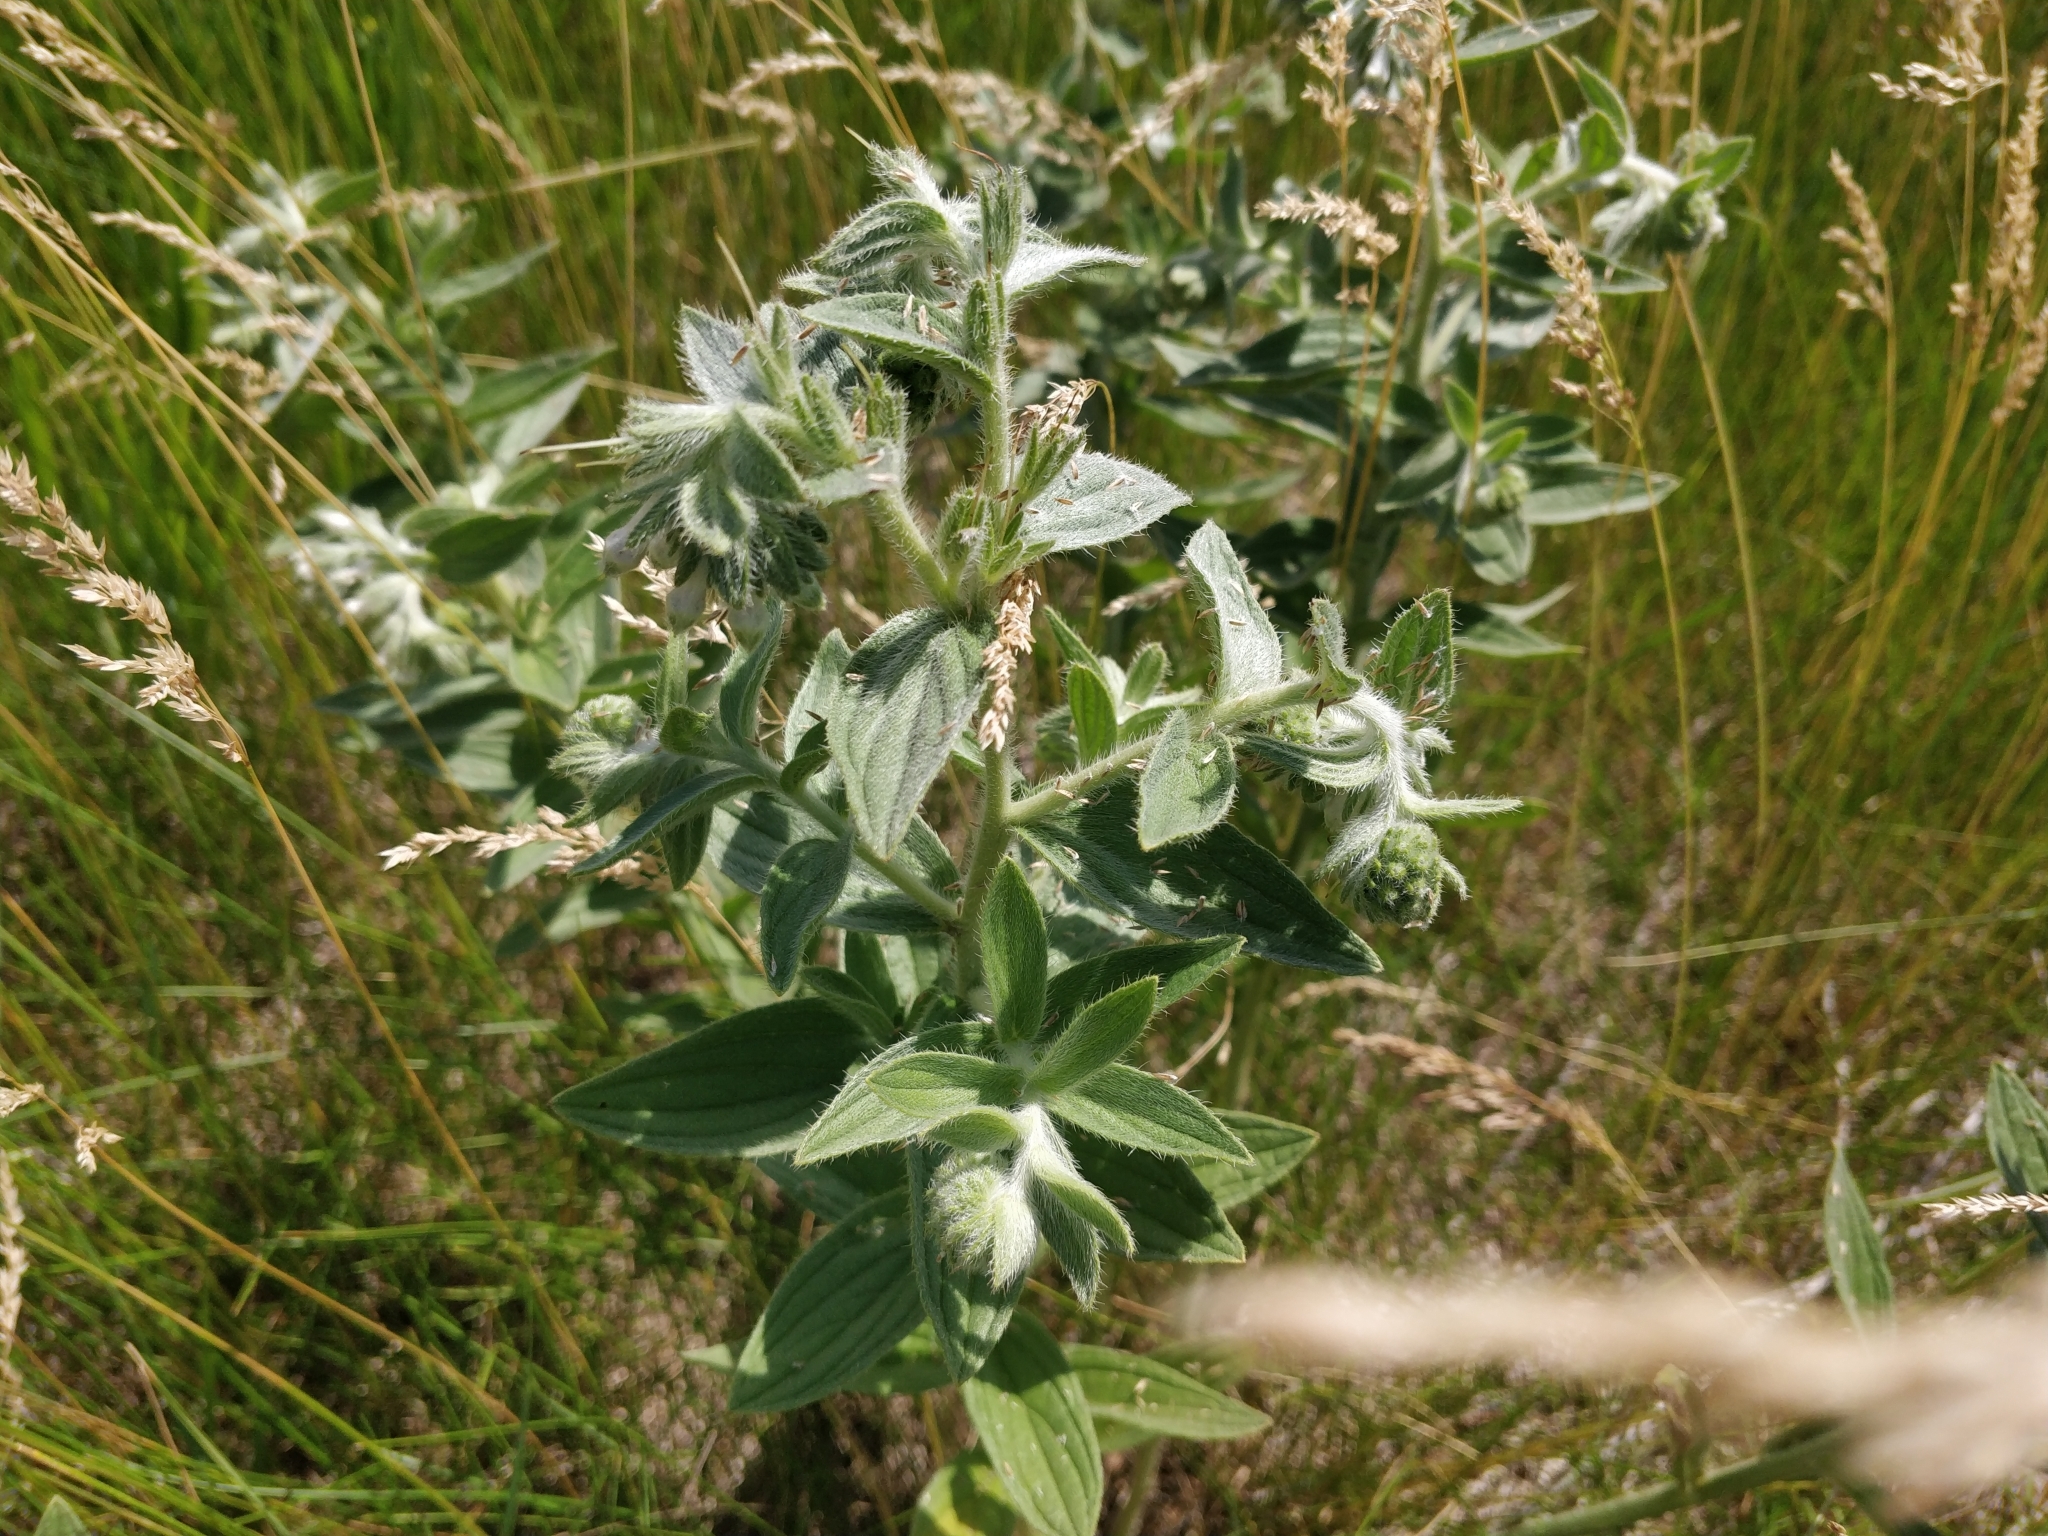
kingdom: Plantae
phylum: Tracheophyta
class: Magnoliopsida
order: Boraginales
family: Boraginaceae
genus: Lithospermum
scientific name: Lithospermum occidentale
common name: Western false gromwell
